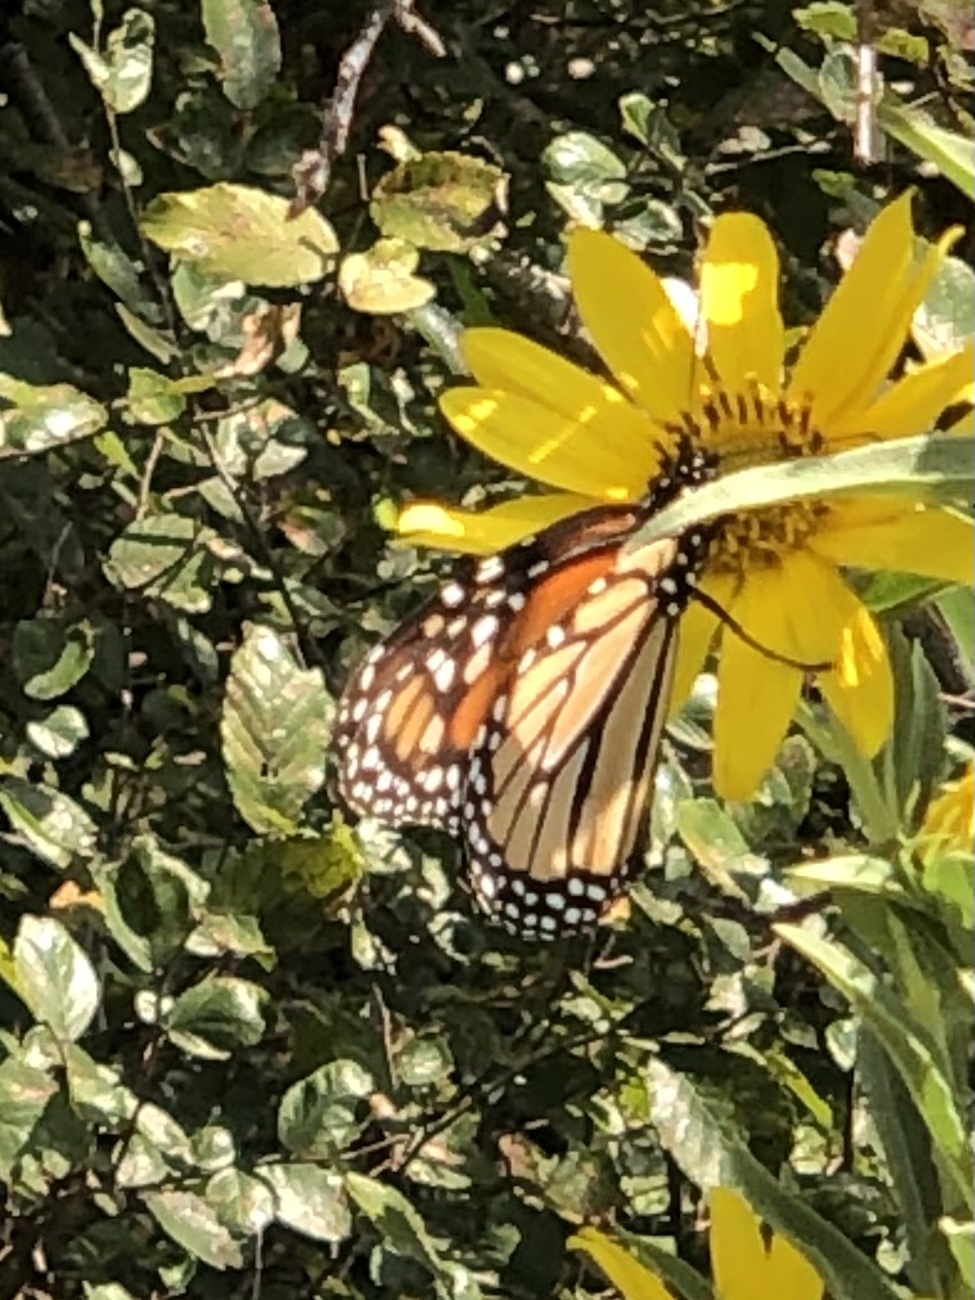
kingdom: Animalia
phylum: Arthropoda
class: Insecta
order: Lepidoptera
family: Nymphalidae
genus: Danaus
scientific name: Danaus plexippus
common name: Monarch
